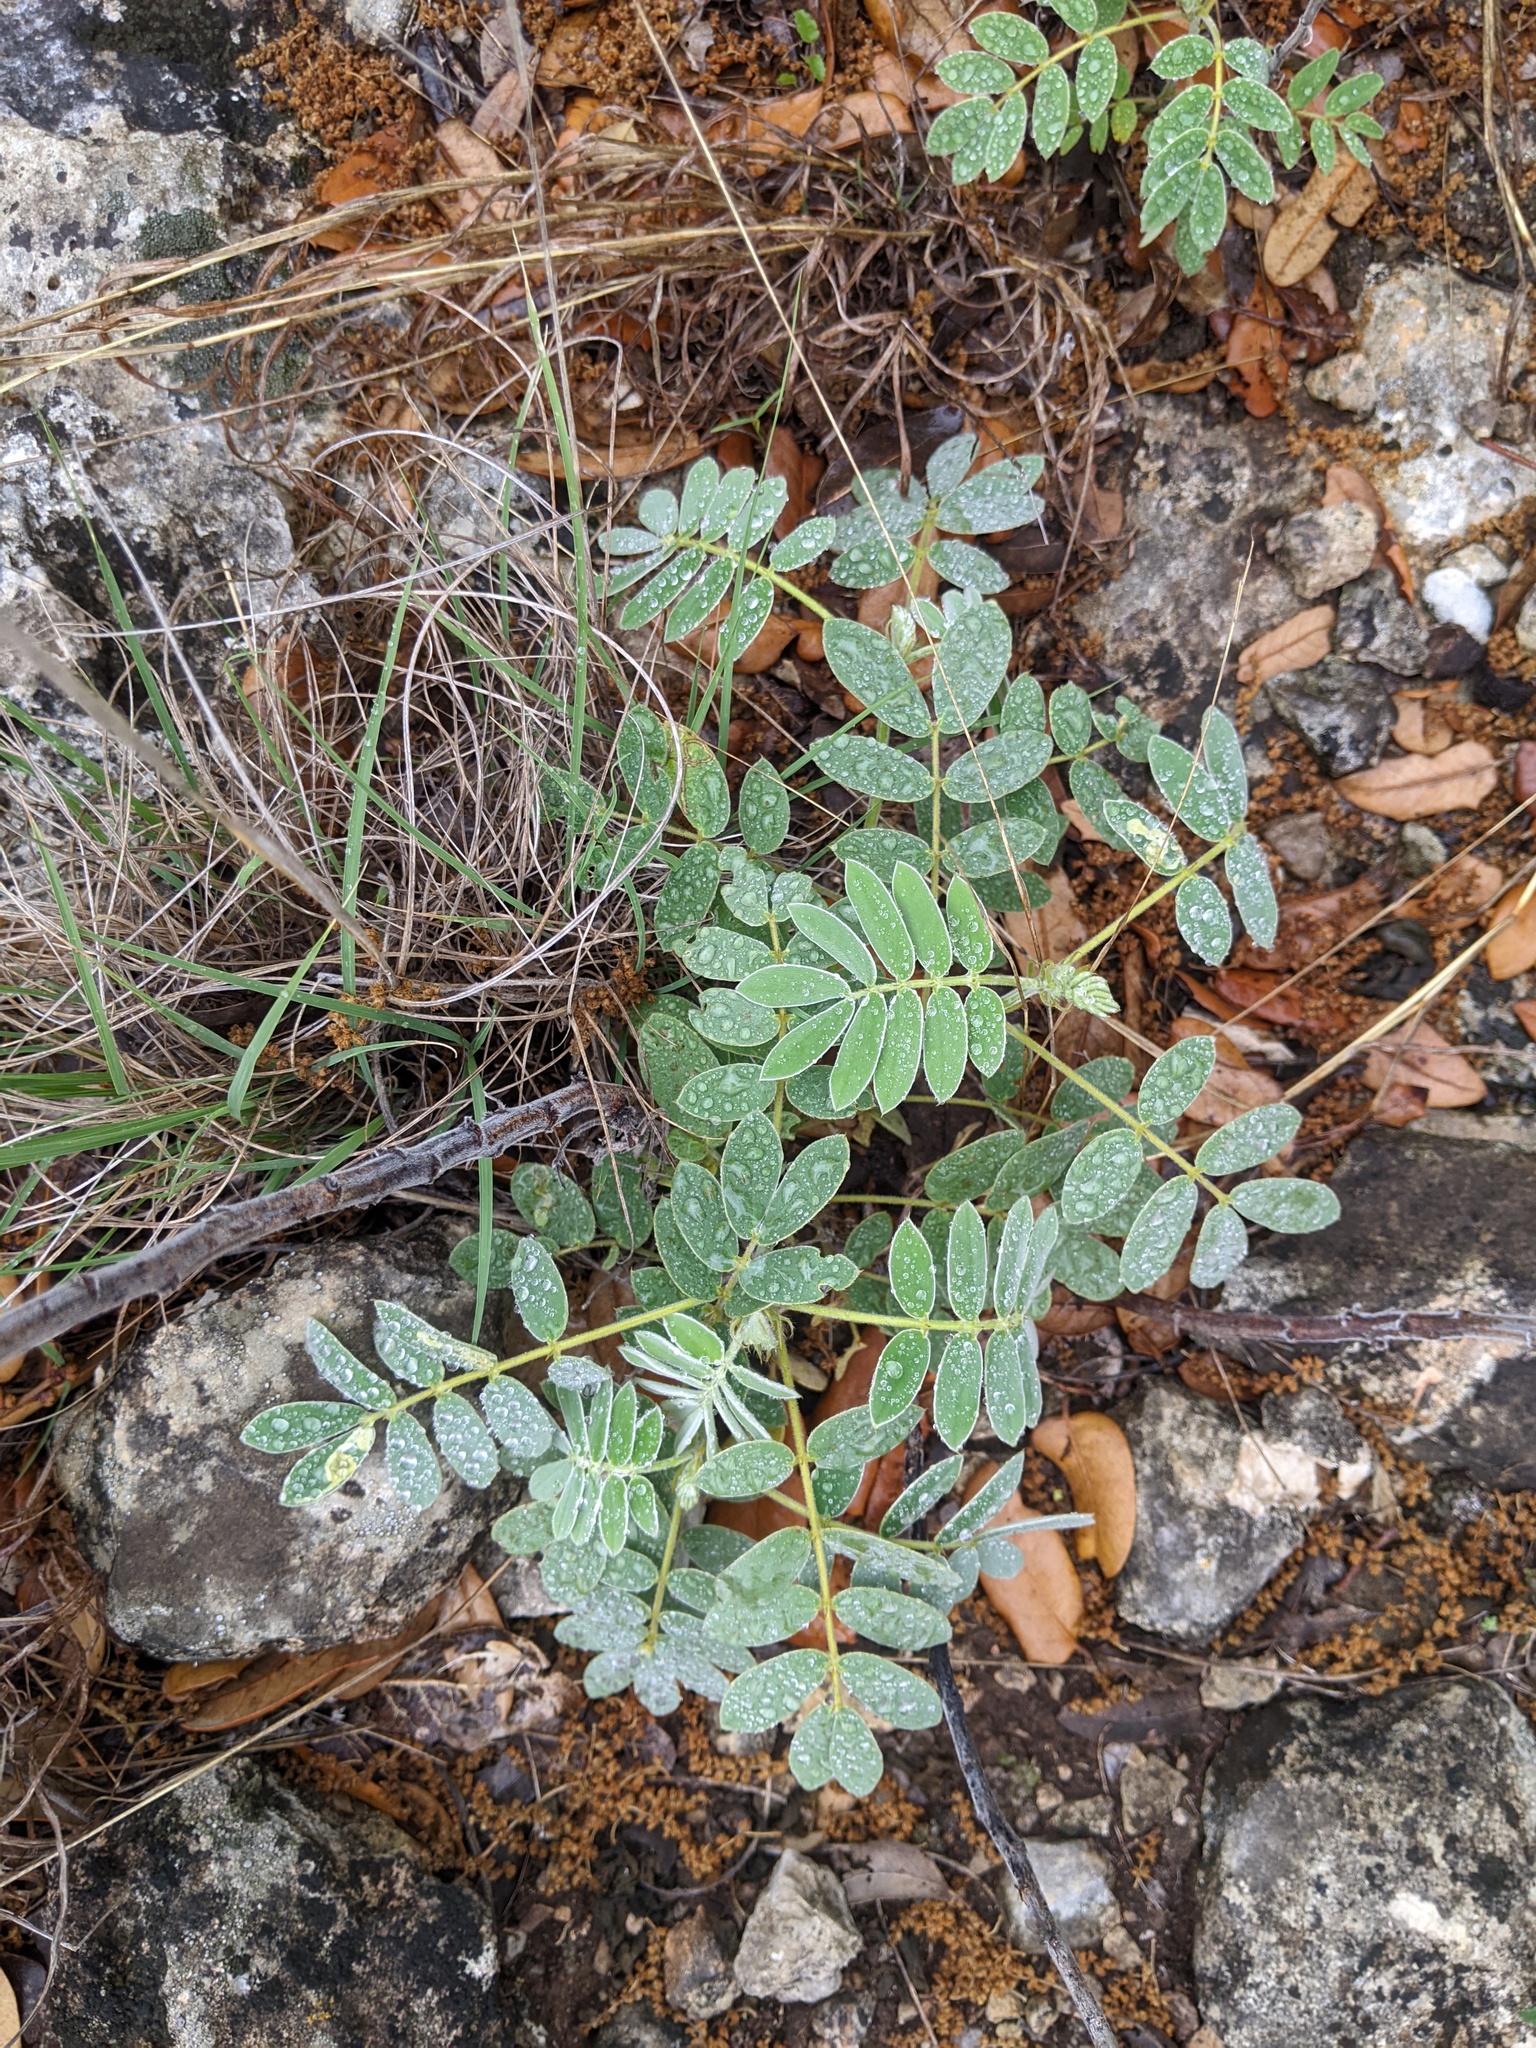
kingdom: Plantae
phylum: Tracheophyta
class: Magnoliopsida
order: Fabales
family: Fabaceae
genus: Senna
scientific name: Senna lindheimeriana
